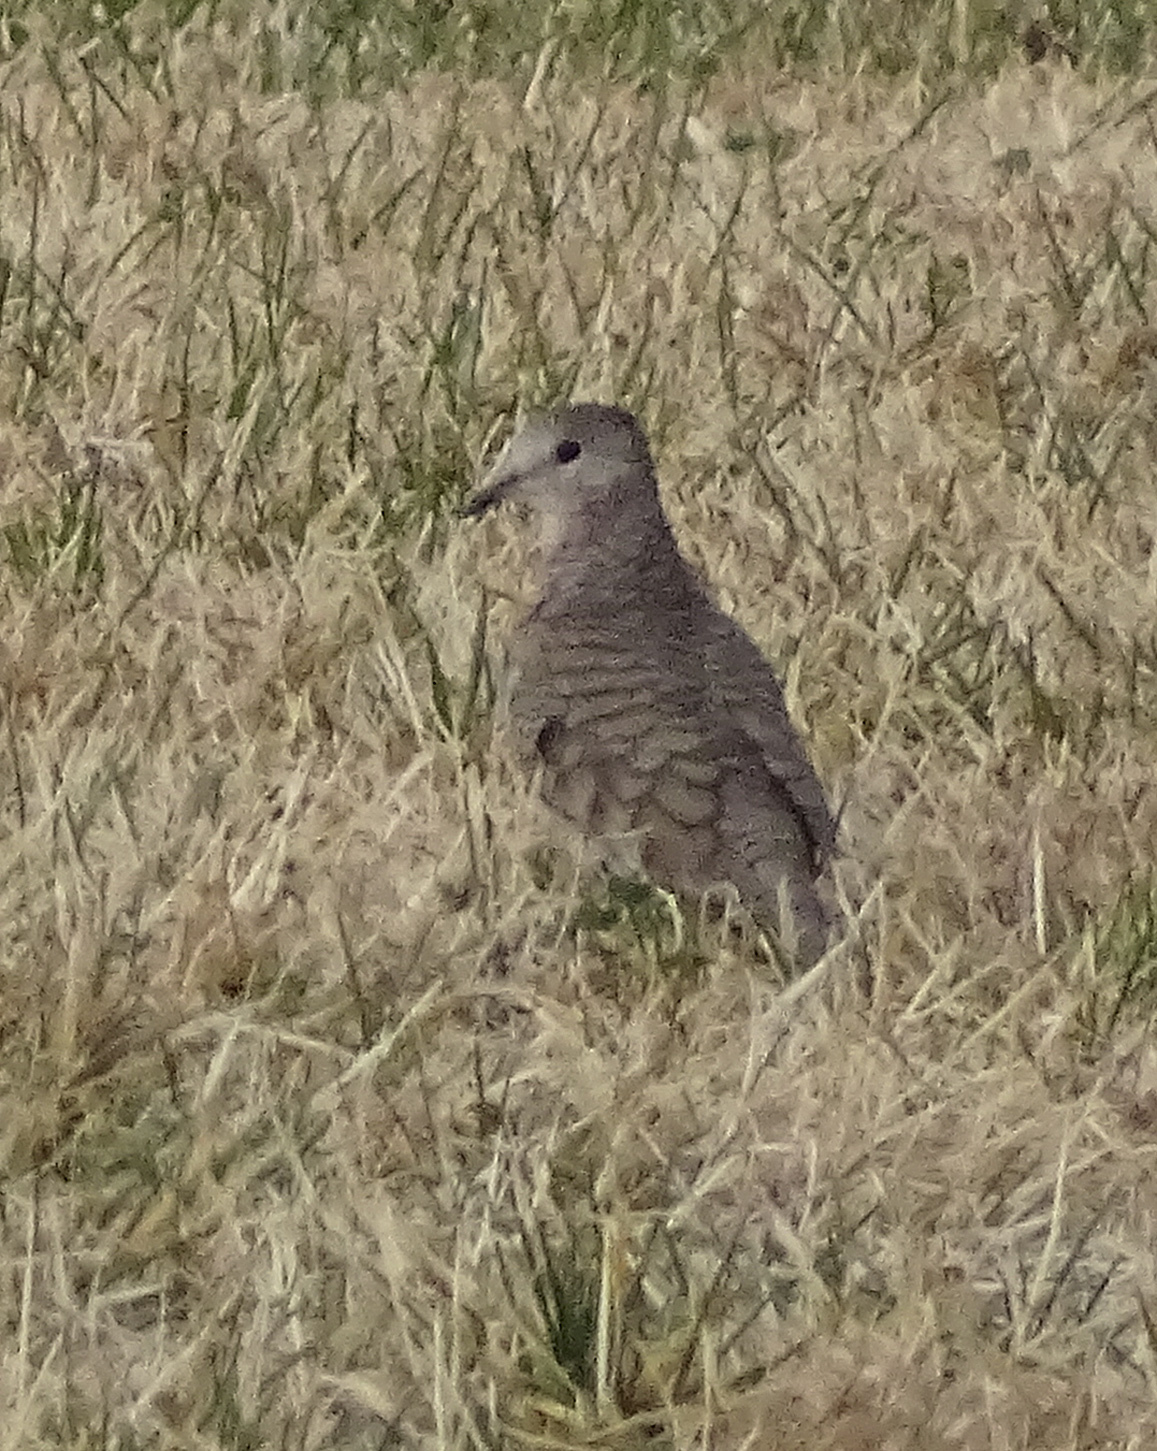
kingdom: Animalia
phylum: Chordata
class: Aves
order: Columbiformes
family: Columbidae
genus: Columbina
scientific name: Columbina inca
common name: Inca dove
